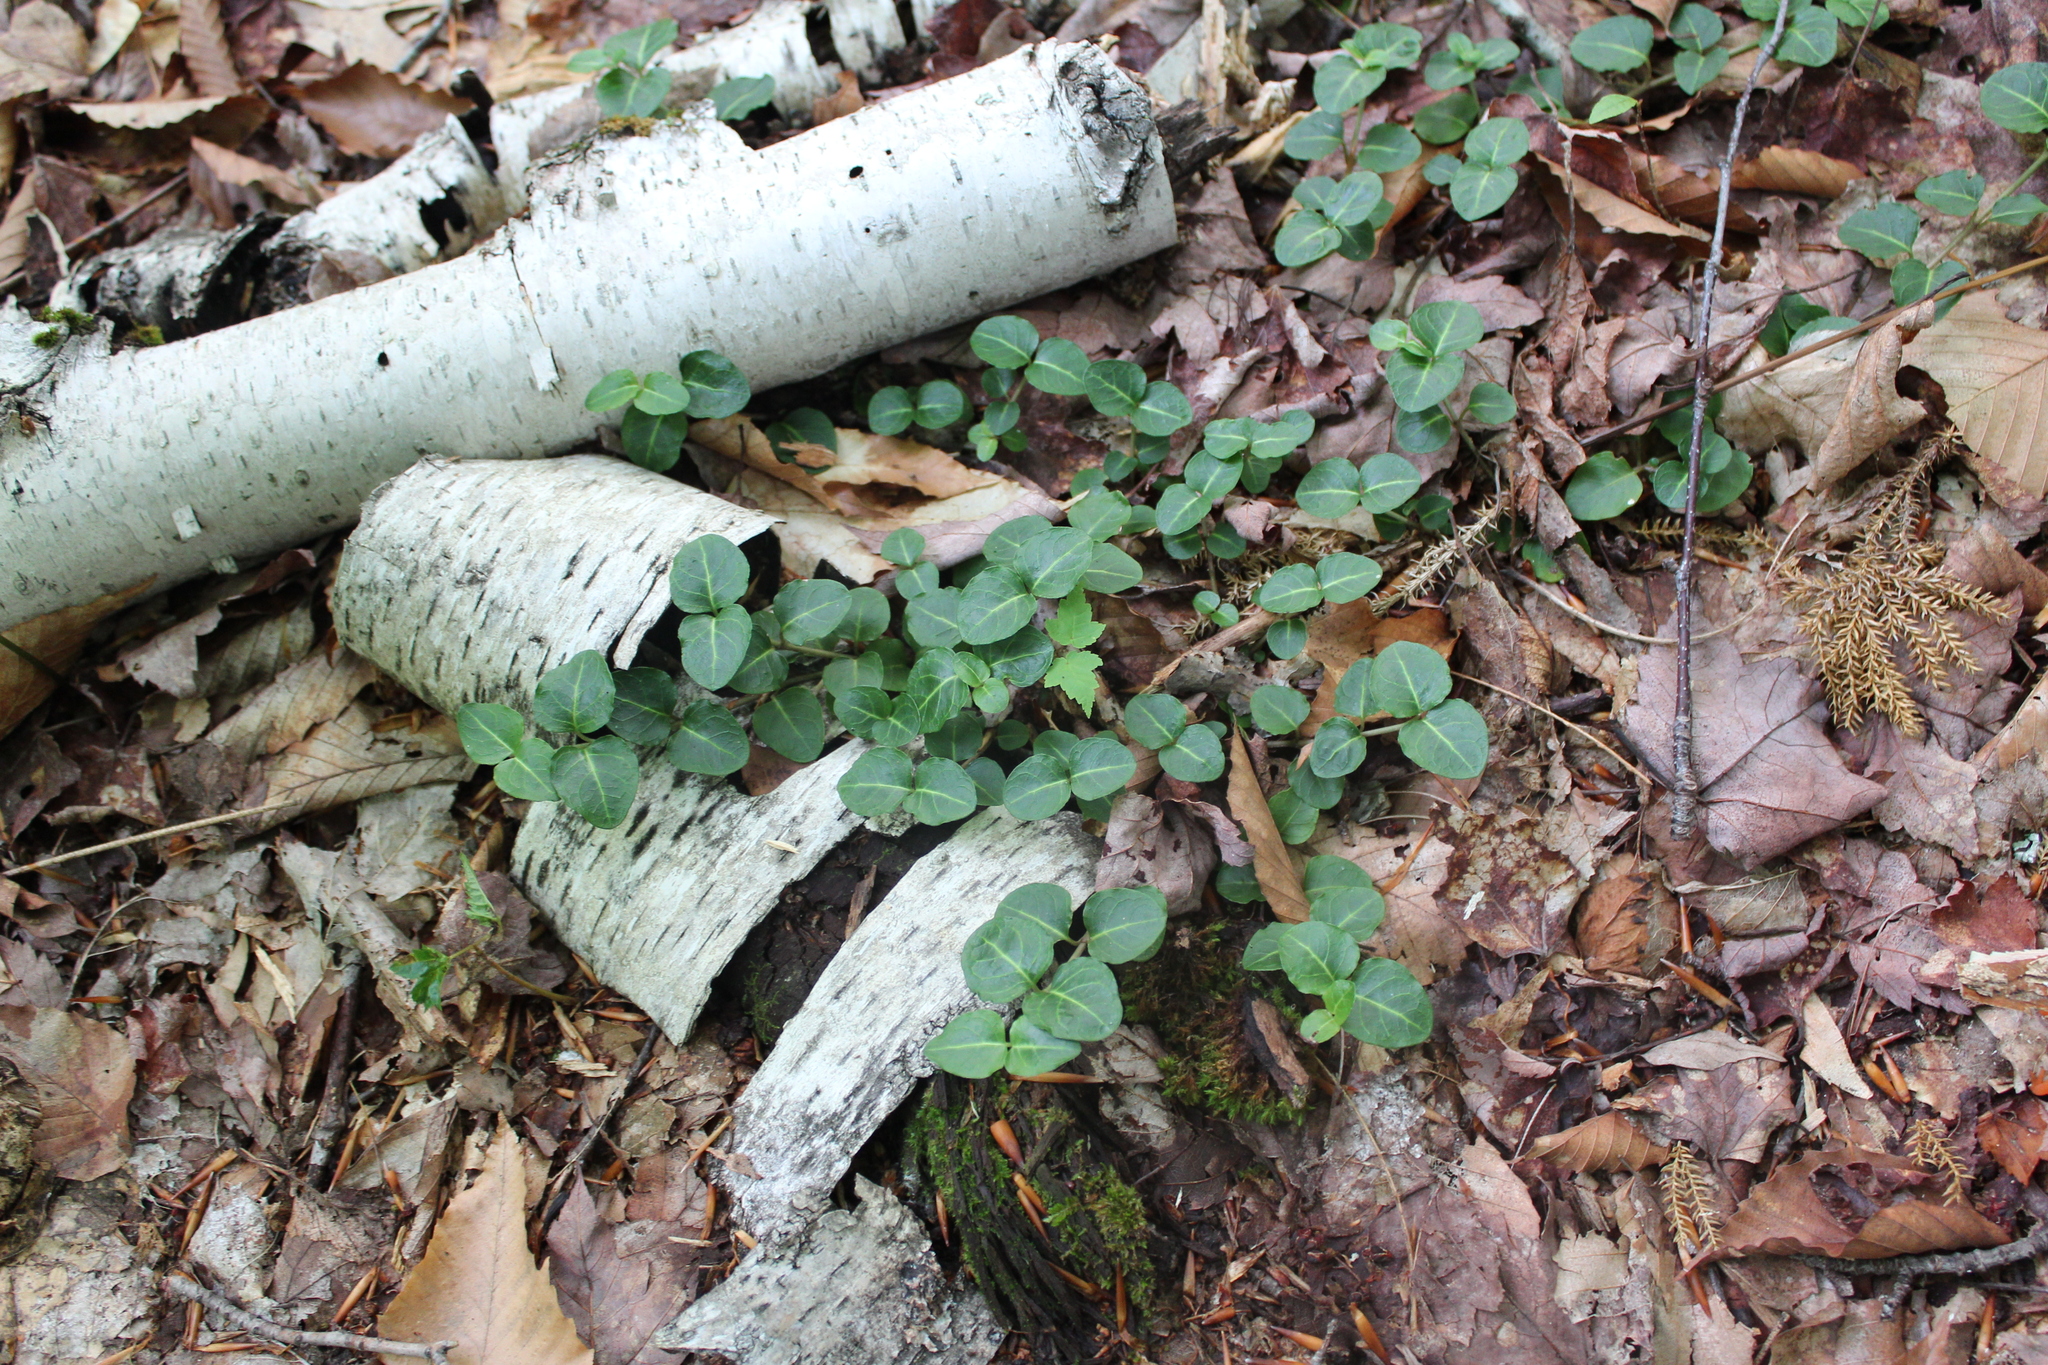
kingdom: Plantae
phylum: Tracheophyta
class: Magnoliopsida
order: Gentianales
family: Rubiaceae
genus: Mitchella
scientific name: Mitchella repens
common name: Partridge-berry
